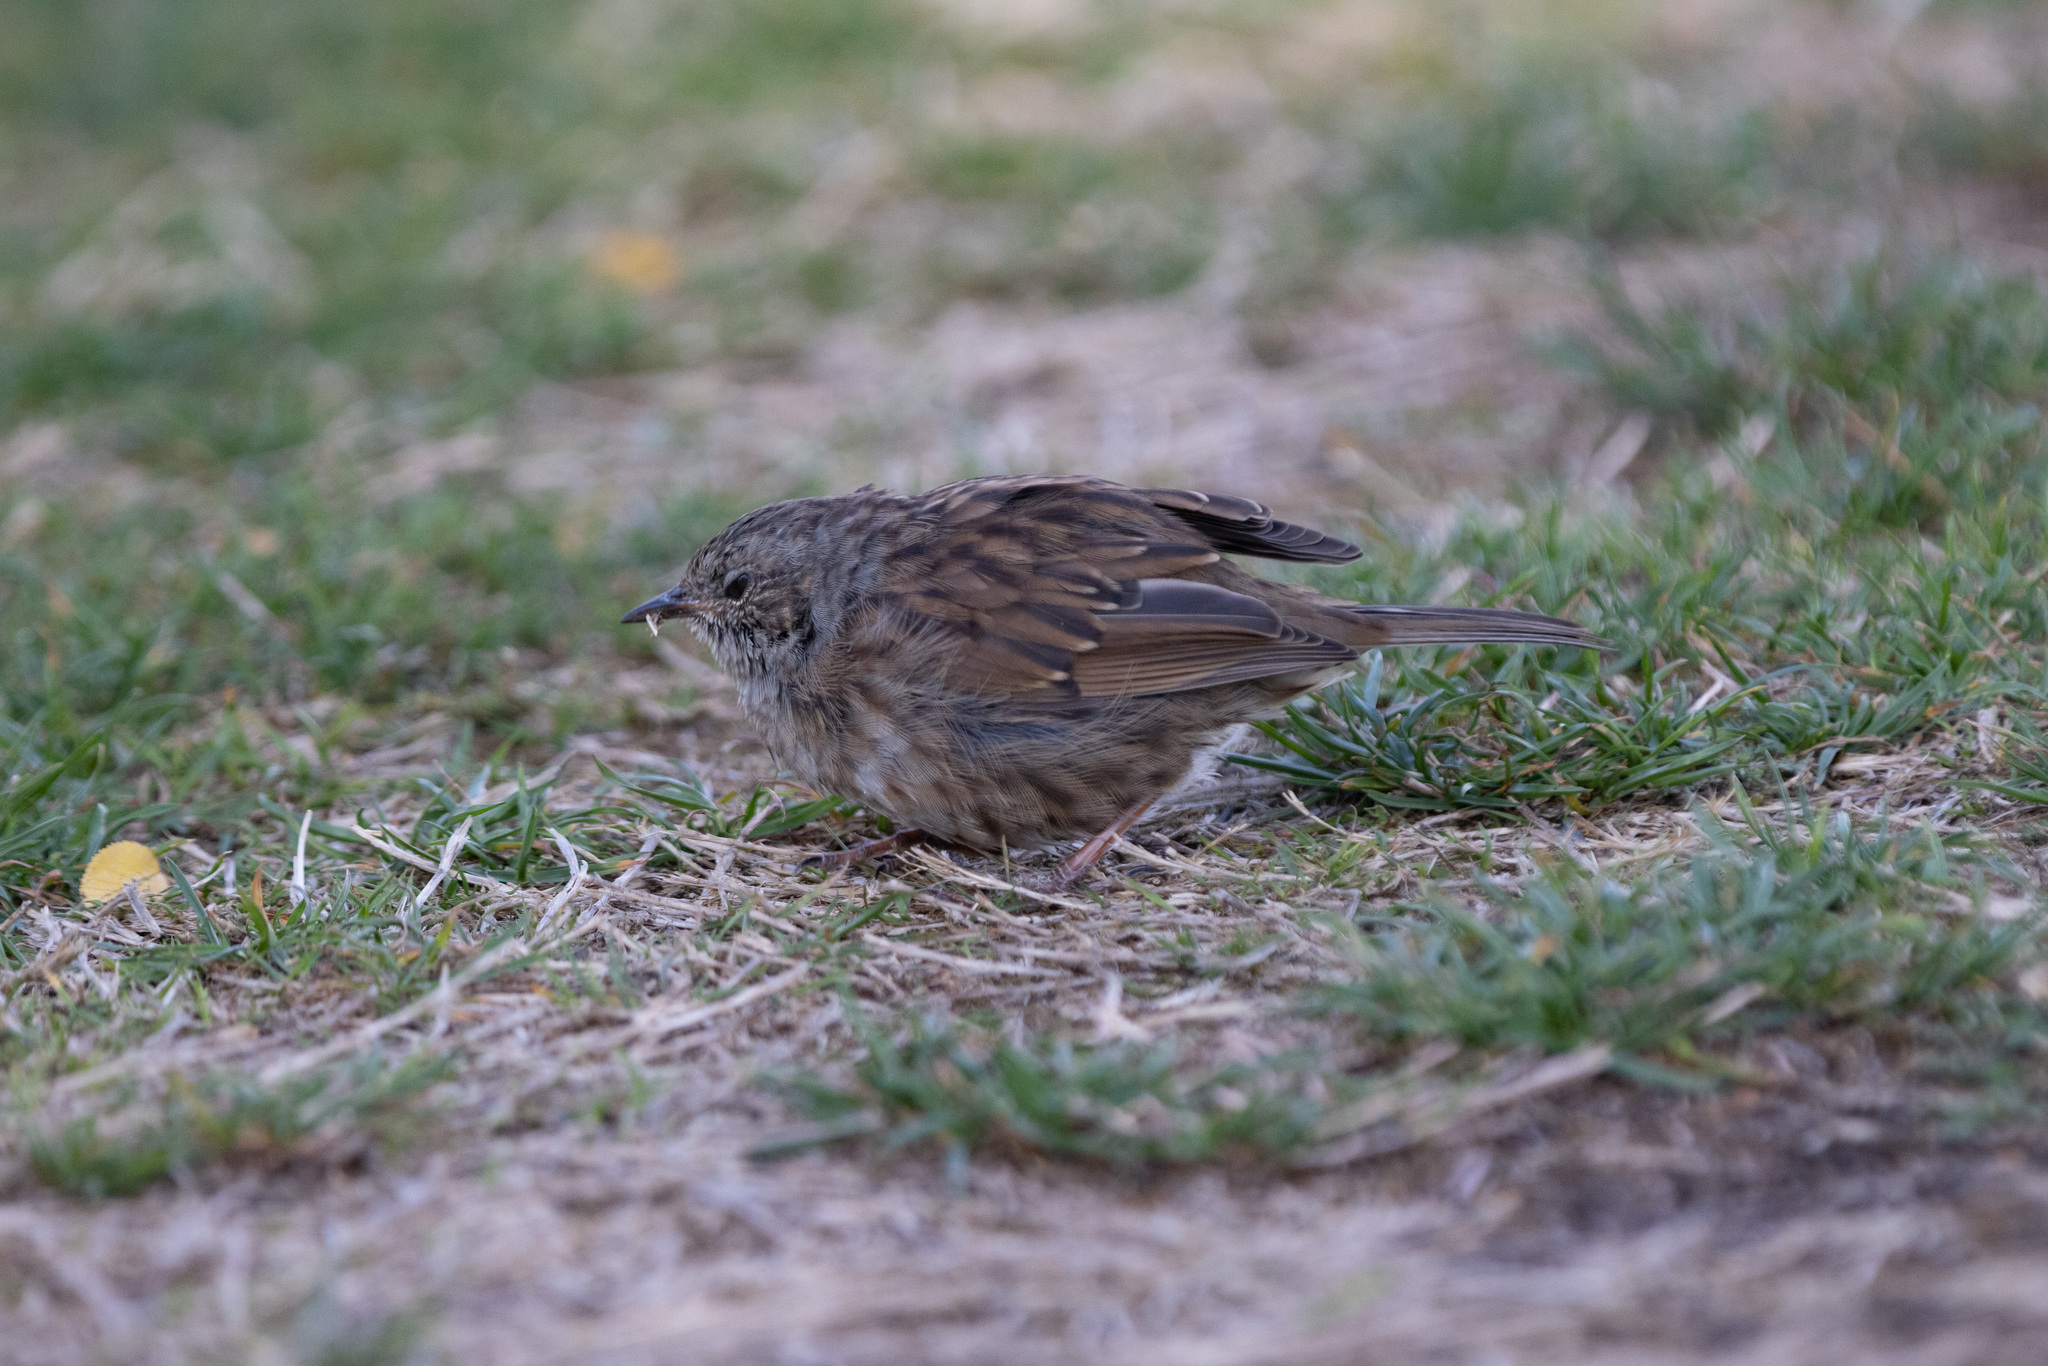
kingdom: Animalia
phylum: Chordata
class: Aves
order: Passeriformes
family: Prunellidae
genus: Prunella
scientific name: Prunella modularis
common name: Dunnock
